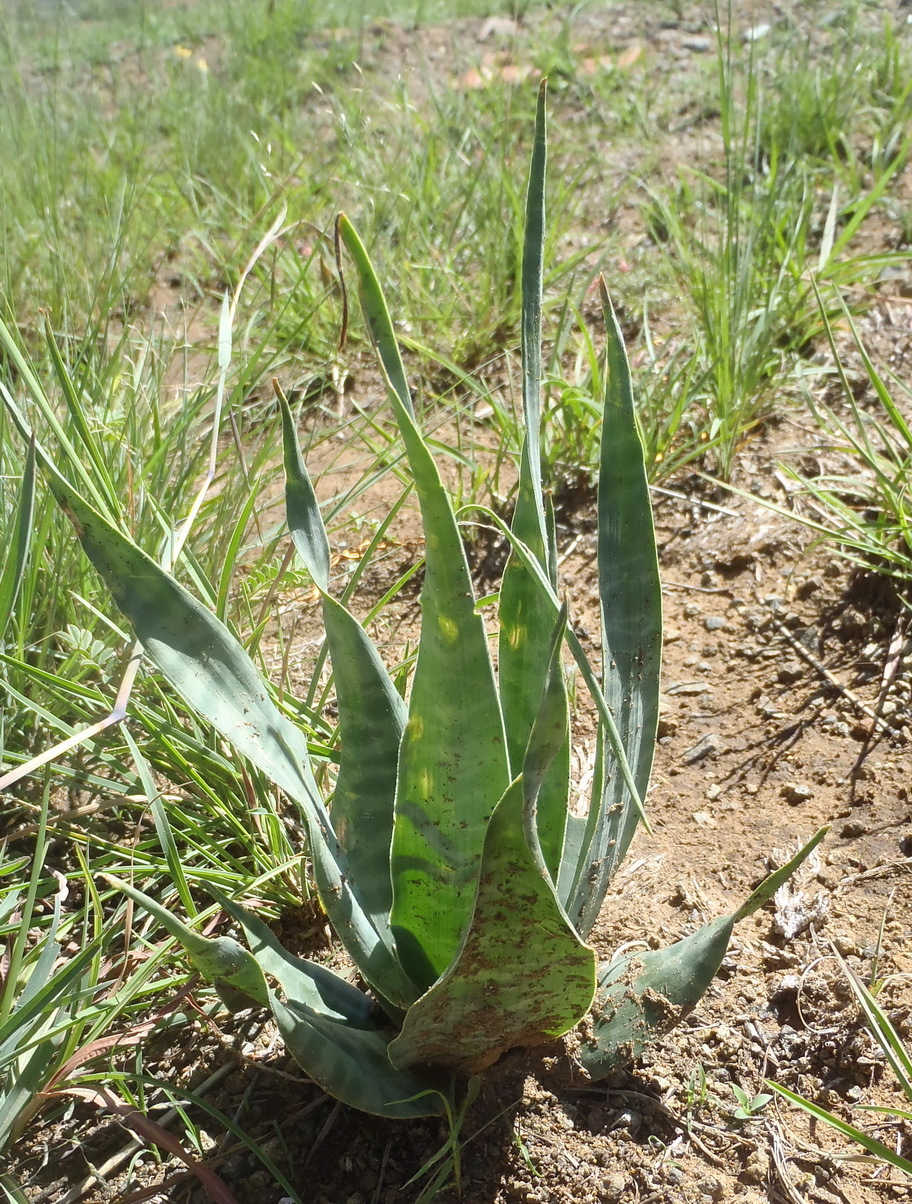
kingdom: Plantae
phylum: Tracheophyta
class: Liliopsida
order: Asparagales
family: Asparagaceae
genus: Ledebouria
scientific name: Ledebouria marginata
